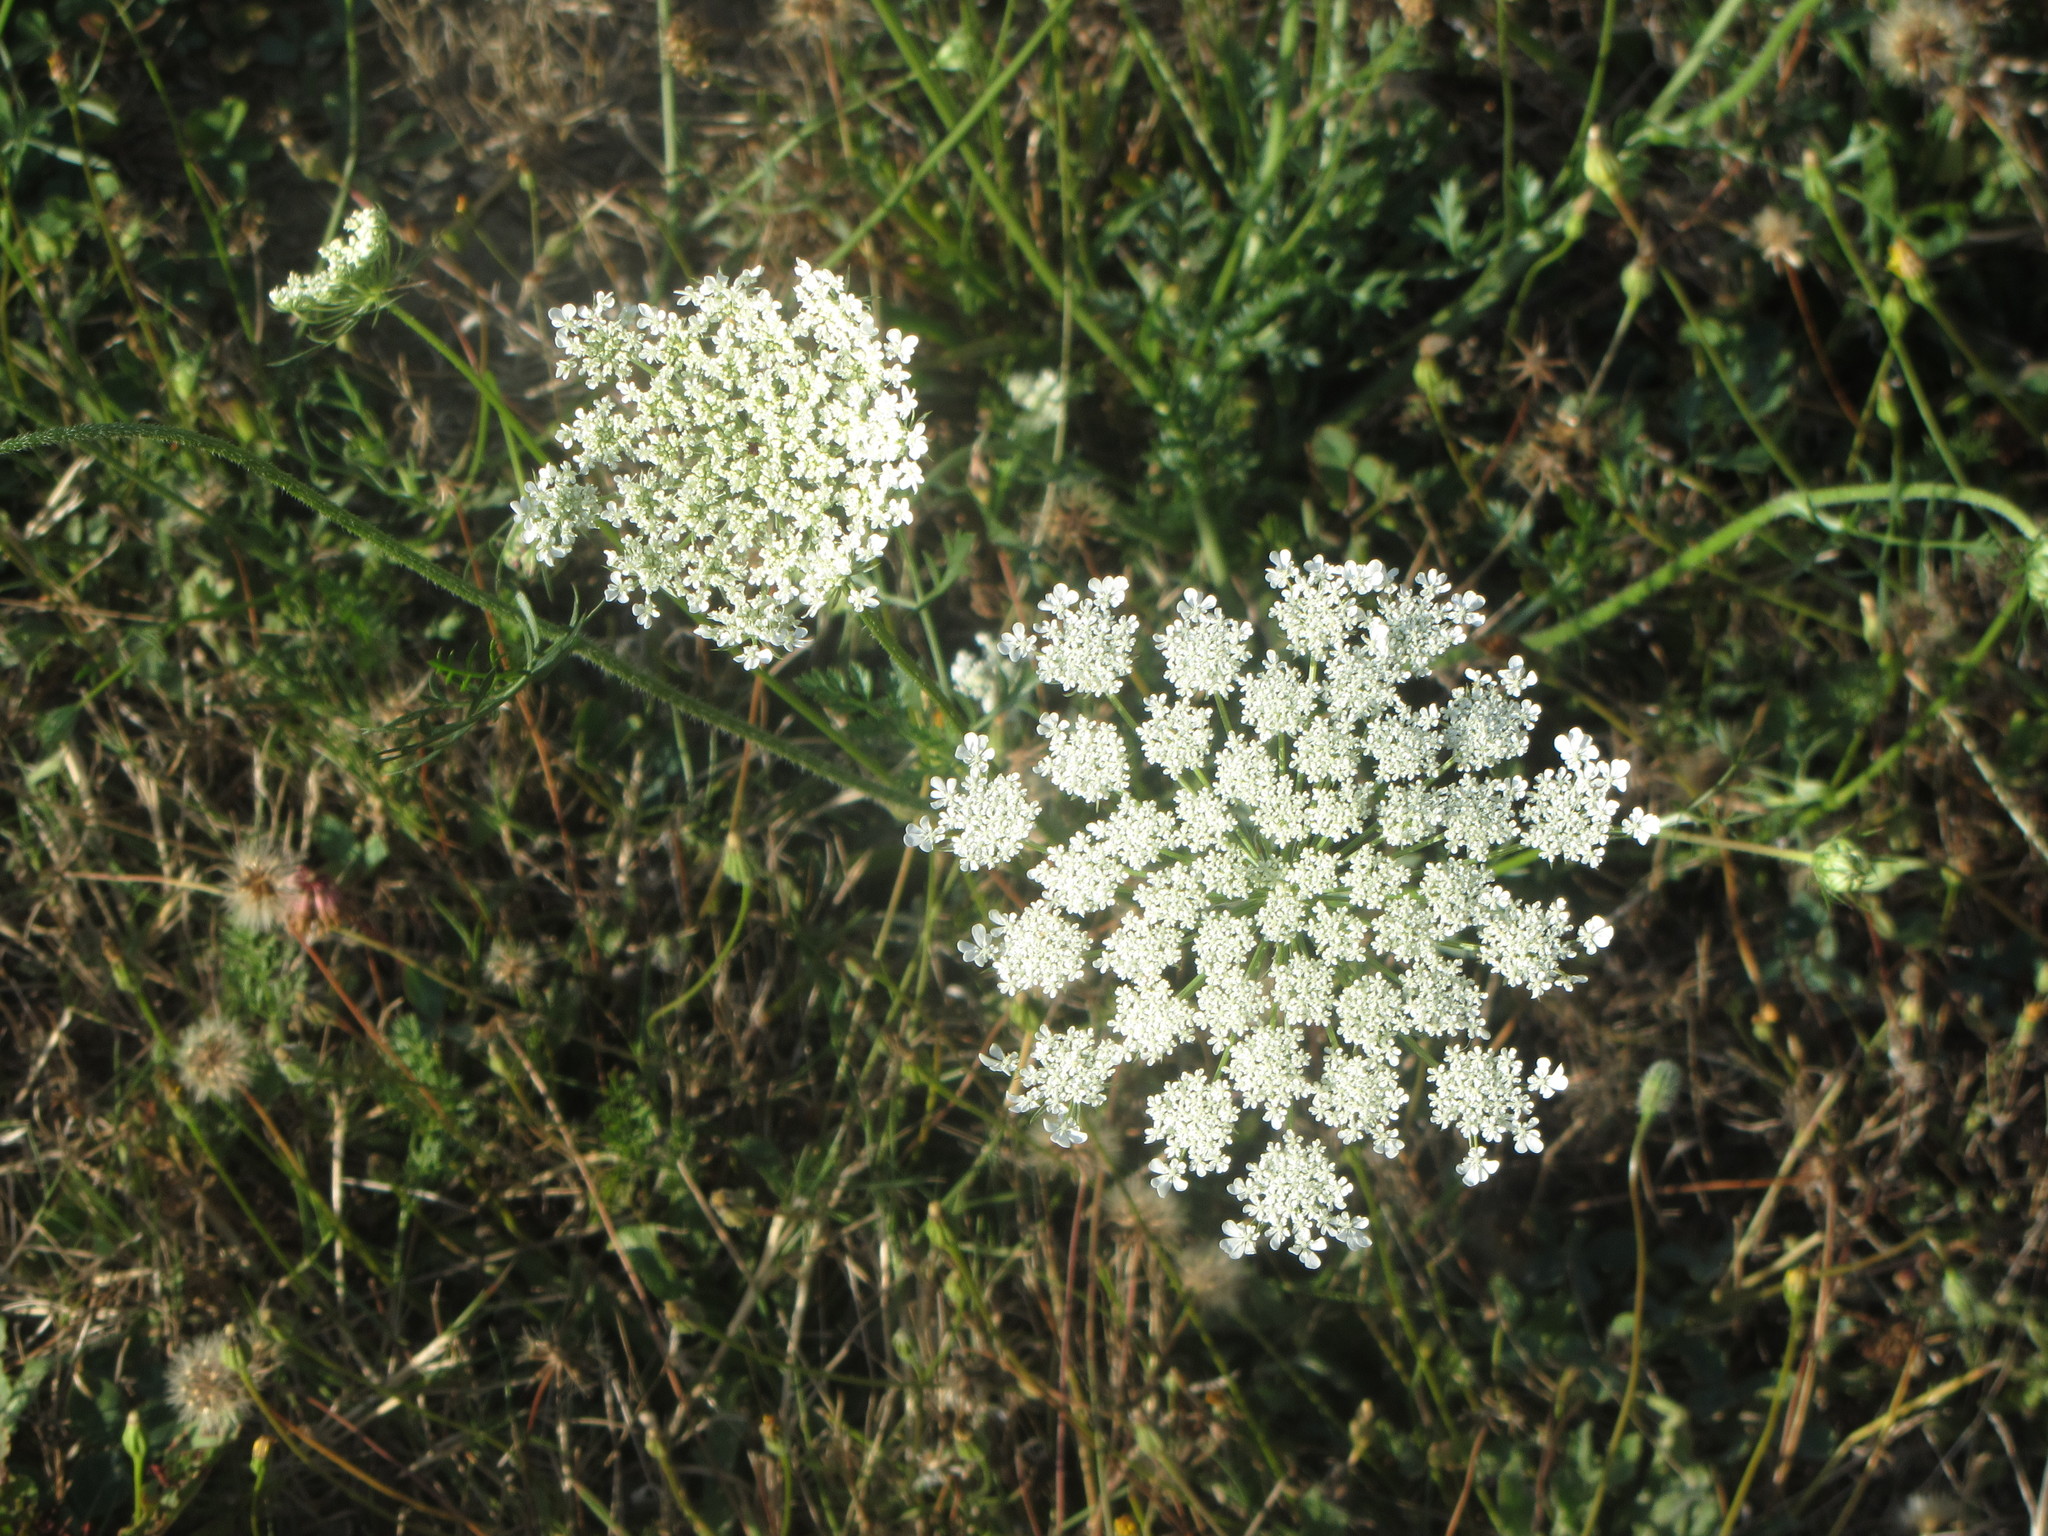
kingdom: Plantae
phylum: Tracheophyta
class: Magnoliopsida
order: Apiales
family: Apiaceae
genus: Daucus
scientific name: Daucus carota
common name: Wild carrot
